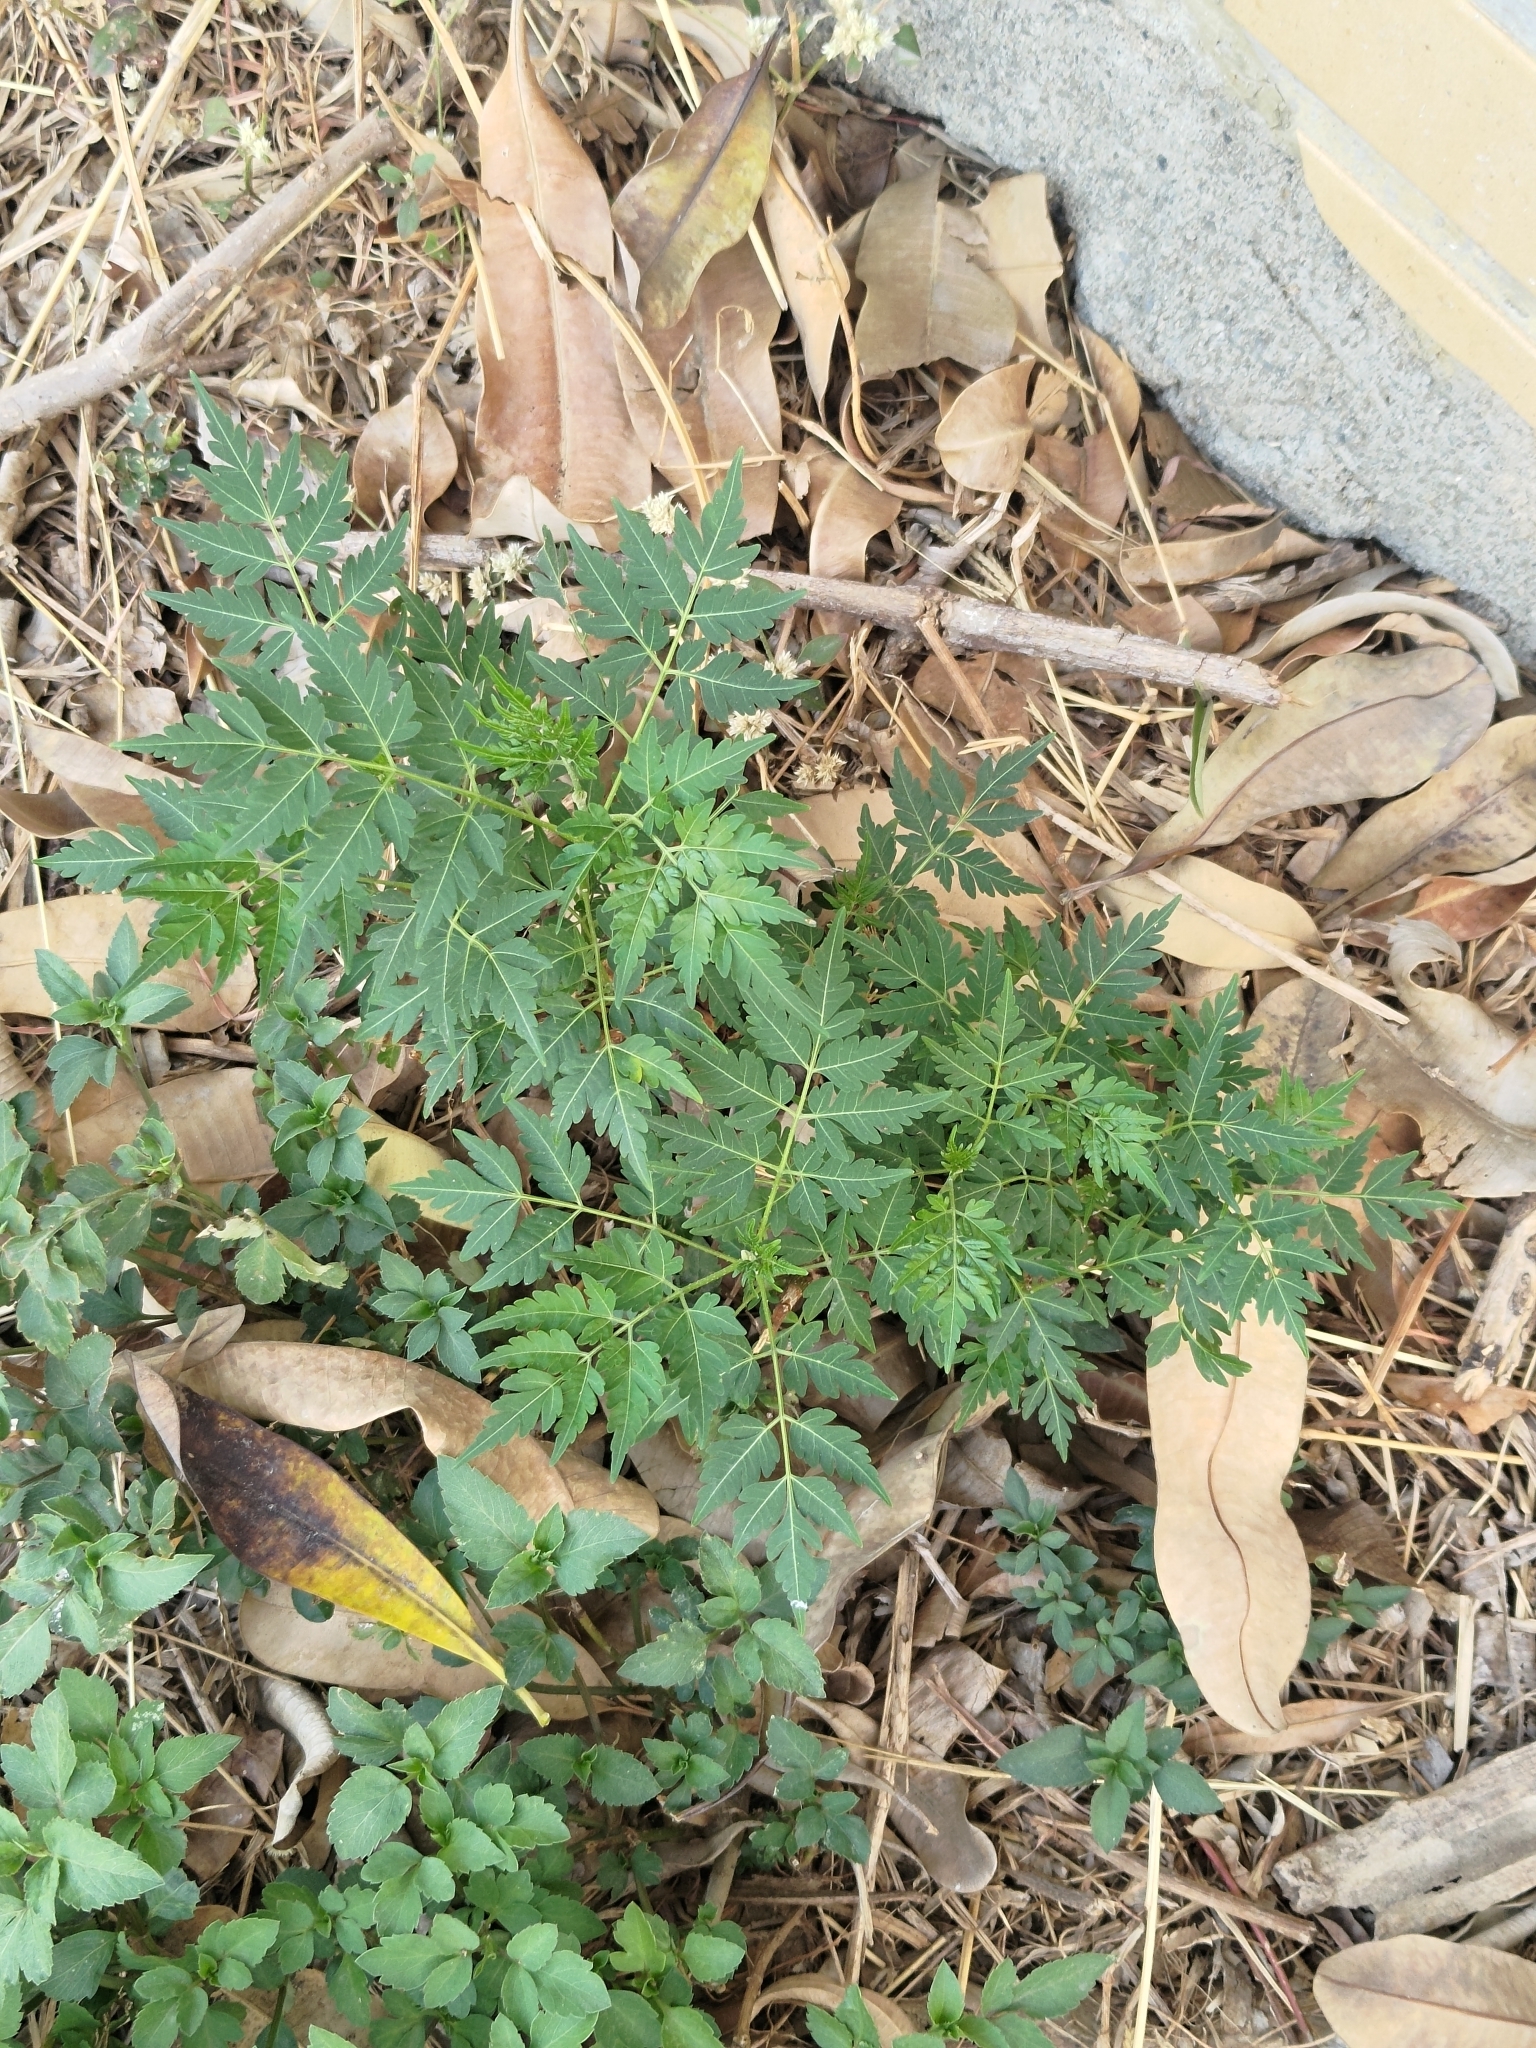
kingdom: Plantae
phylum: Tracheophyta
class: Magnoliopsida
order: Sapindales
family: Meliaceae
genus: Melia
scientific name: Melia azedarach
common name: Chinaberrytree
